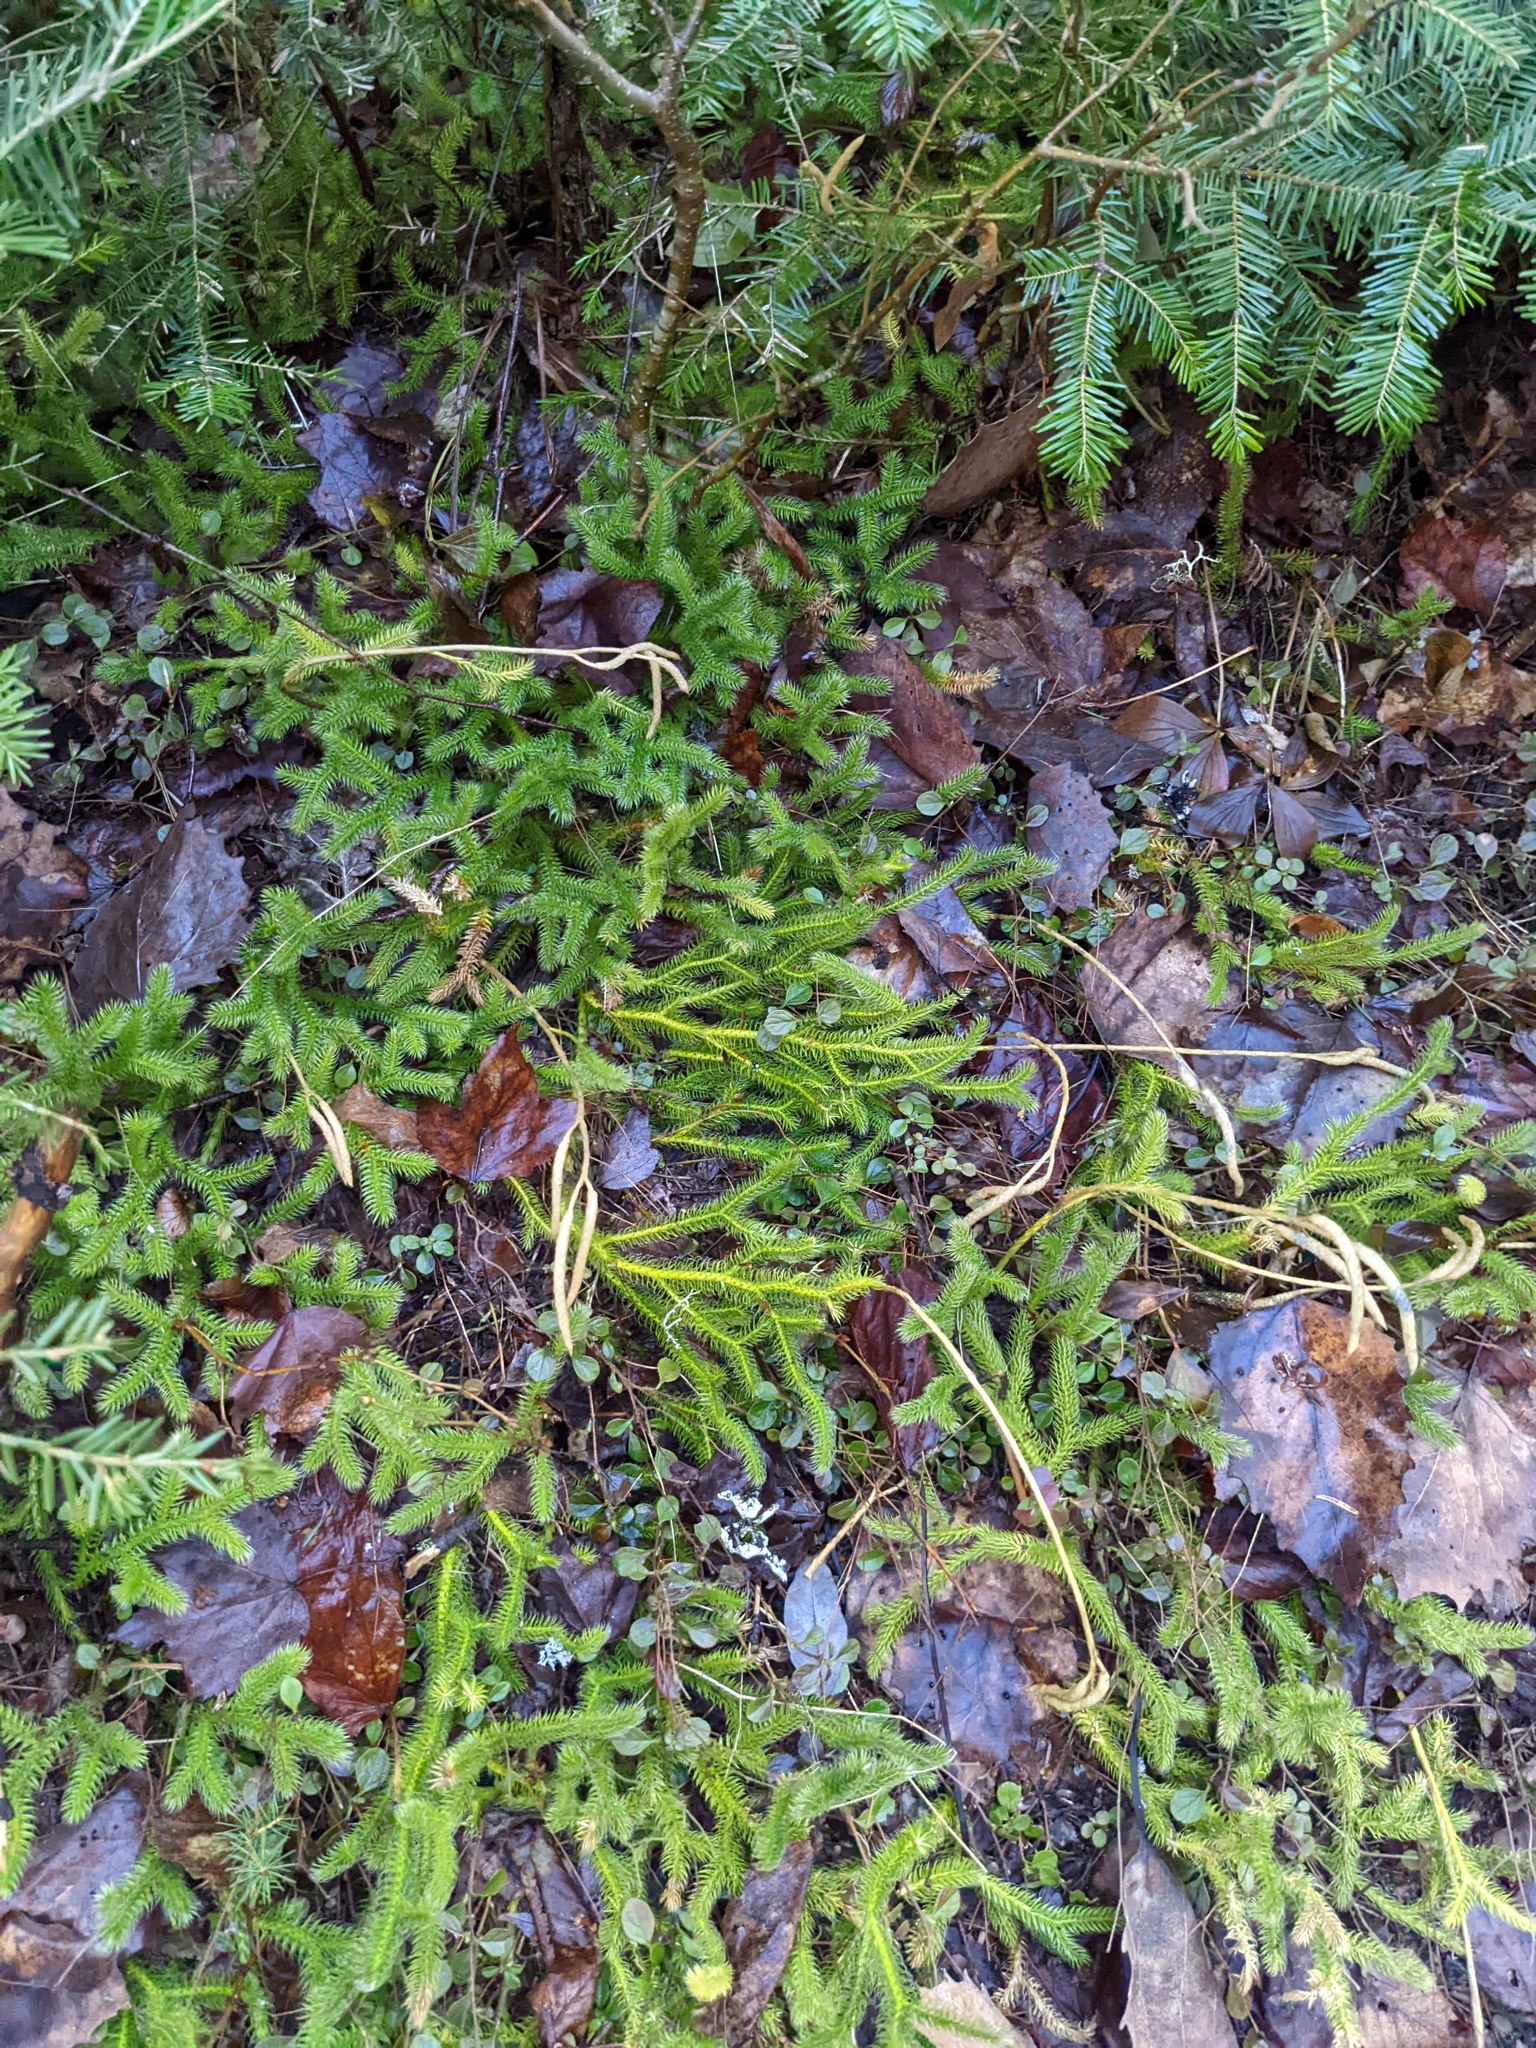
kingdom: Plantae
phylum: Tracheophyta
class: Lycopodiopsida
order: Lycopodiales
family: Lycopodiaceae
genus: Lycopodium
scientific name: Lycopodium clavatum
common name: Stag's-horn clubmoss
